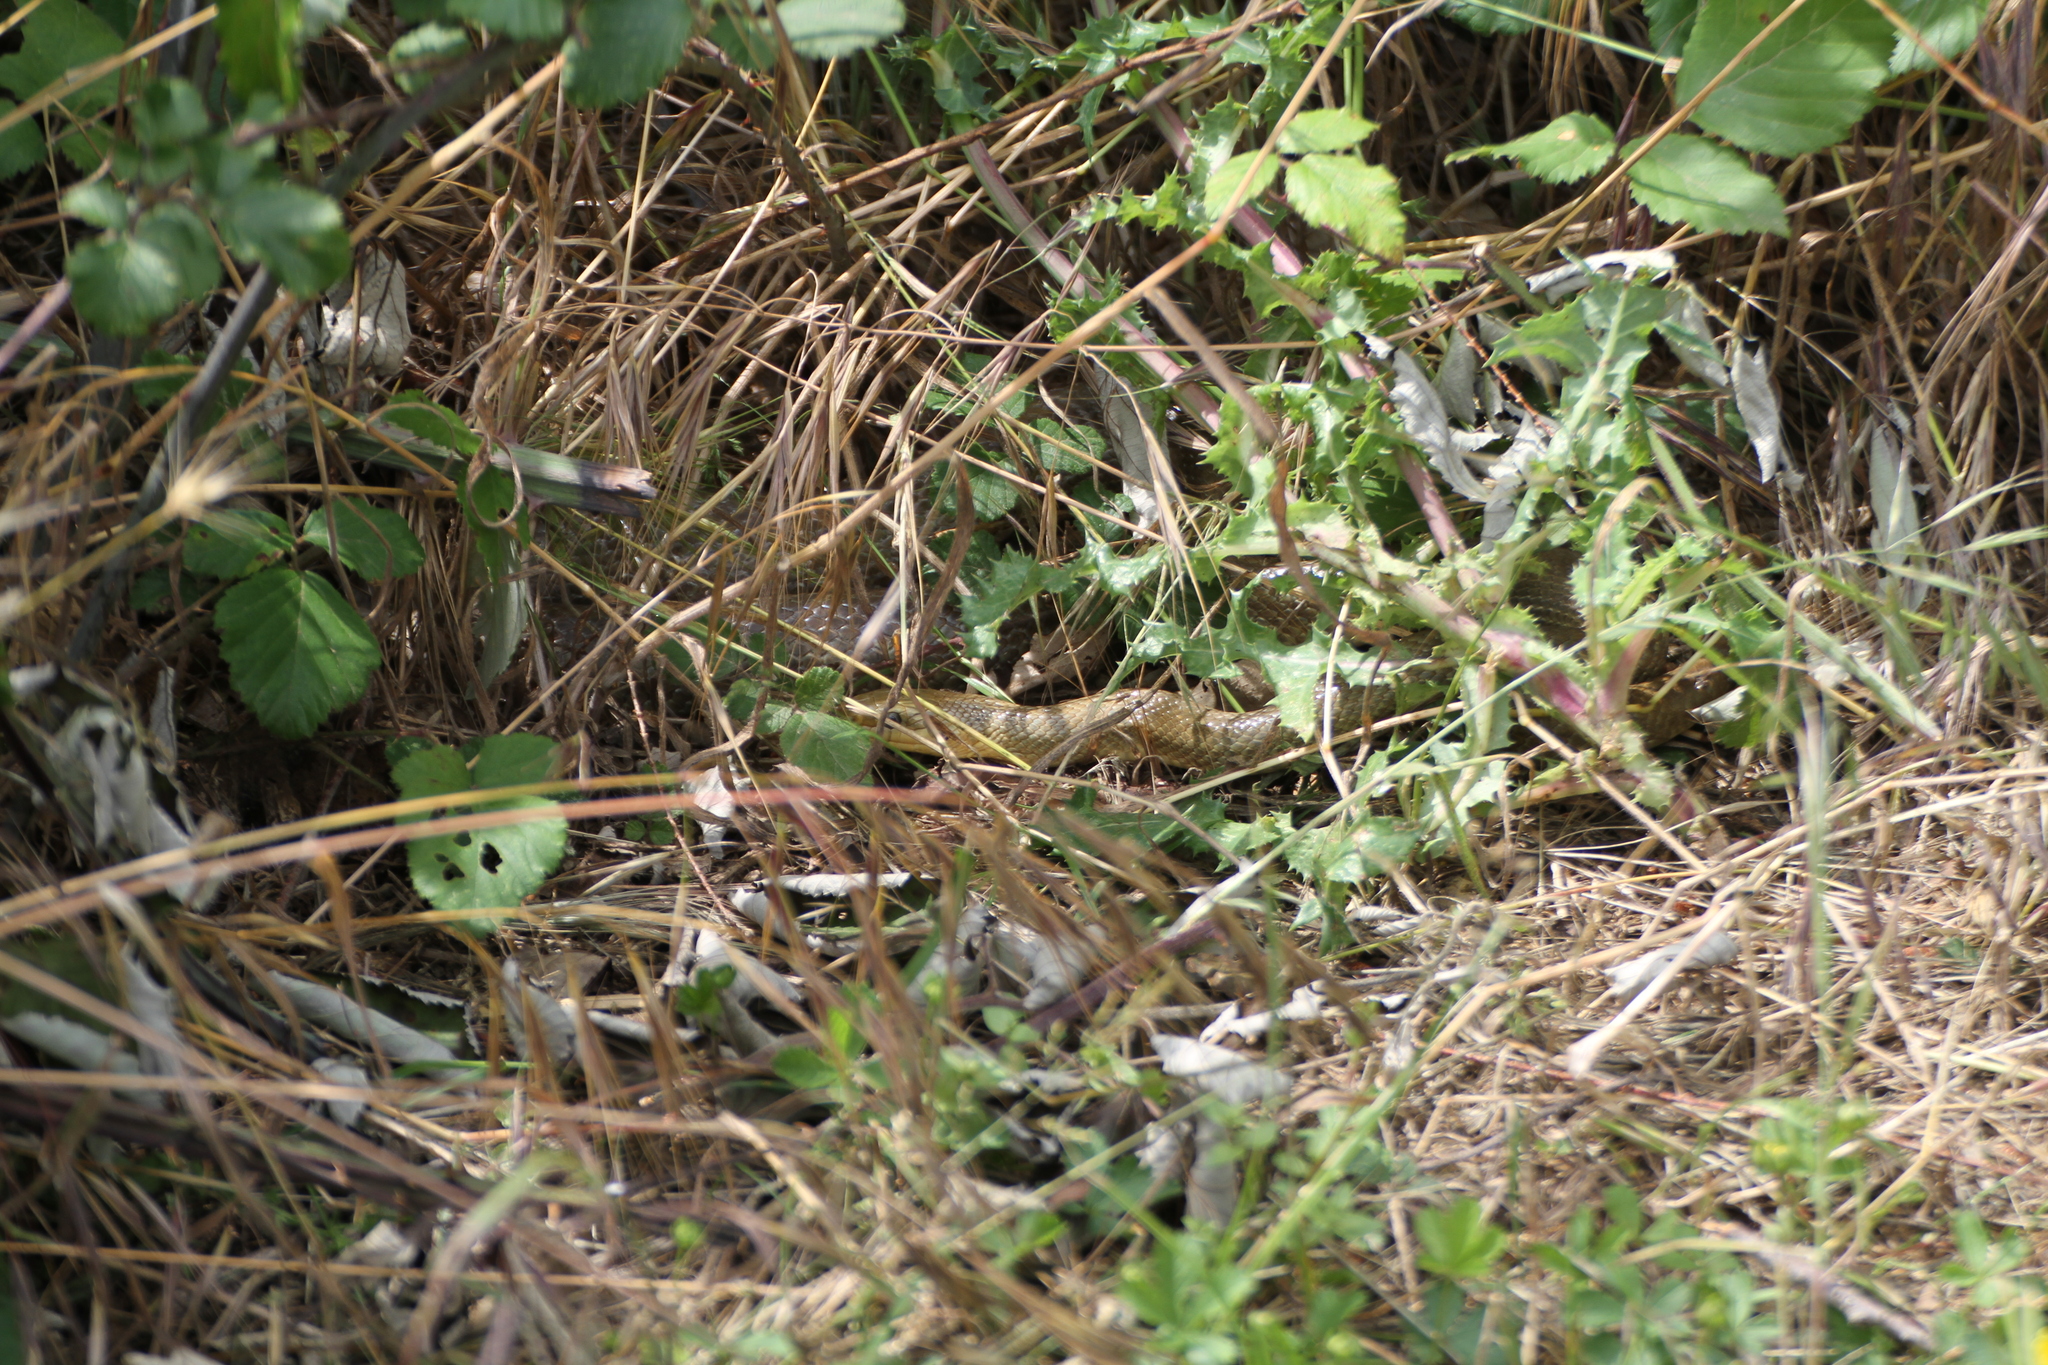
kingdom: Animalia
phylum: Chordata
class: Squamata
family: Colubridae
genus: Zamenis
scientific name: Zamenis longissimus
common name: Aesculapean snake
